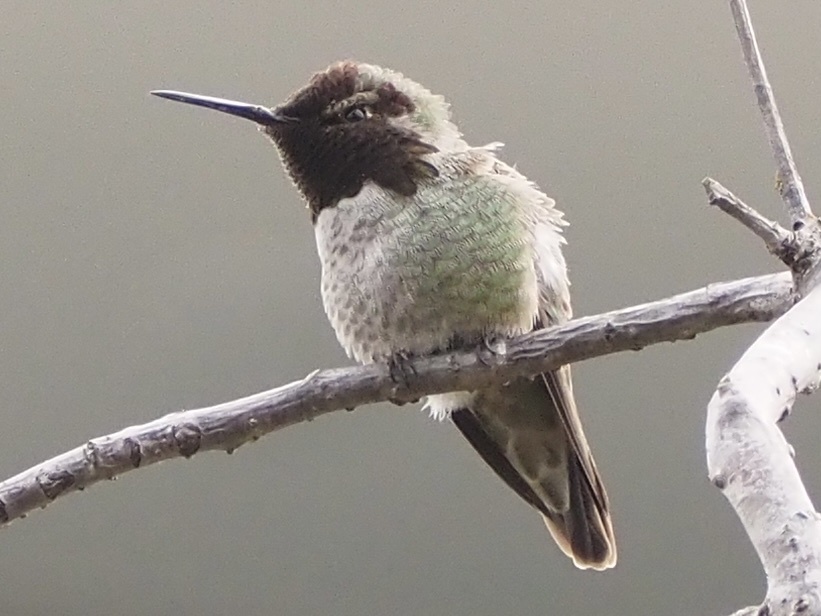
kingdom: Animalia
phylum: Chordata
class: Aves
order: Apodiformes
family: Trochilidae
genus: Calypte
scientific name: Calypte anna
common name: Anna's hummingbird
